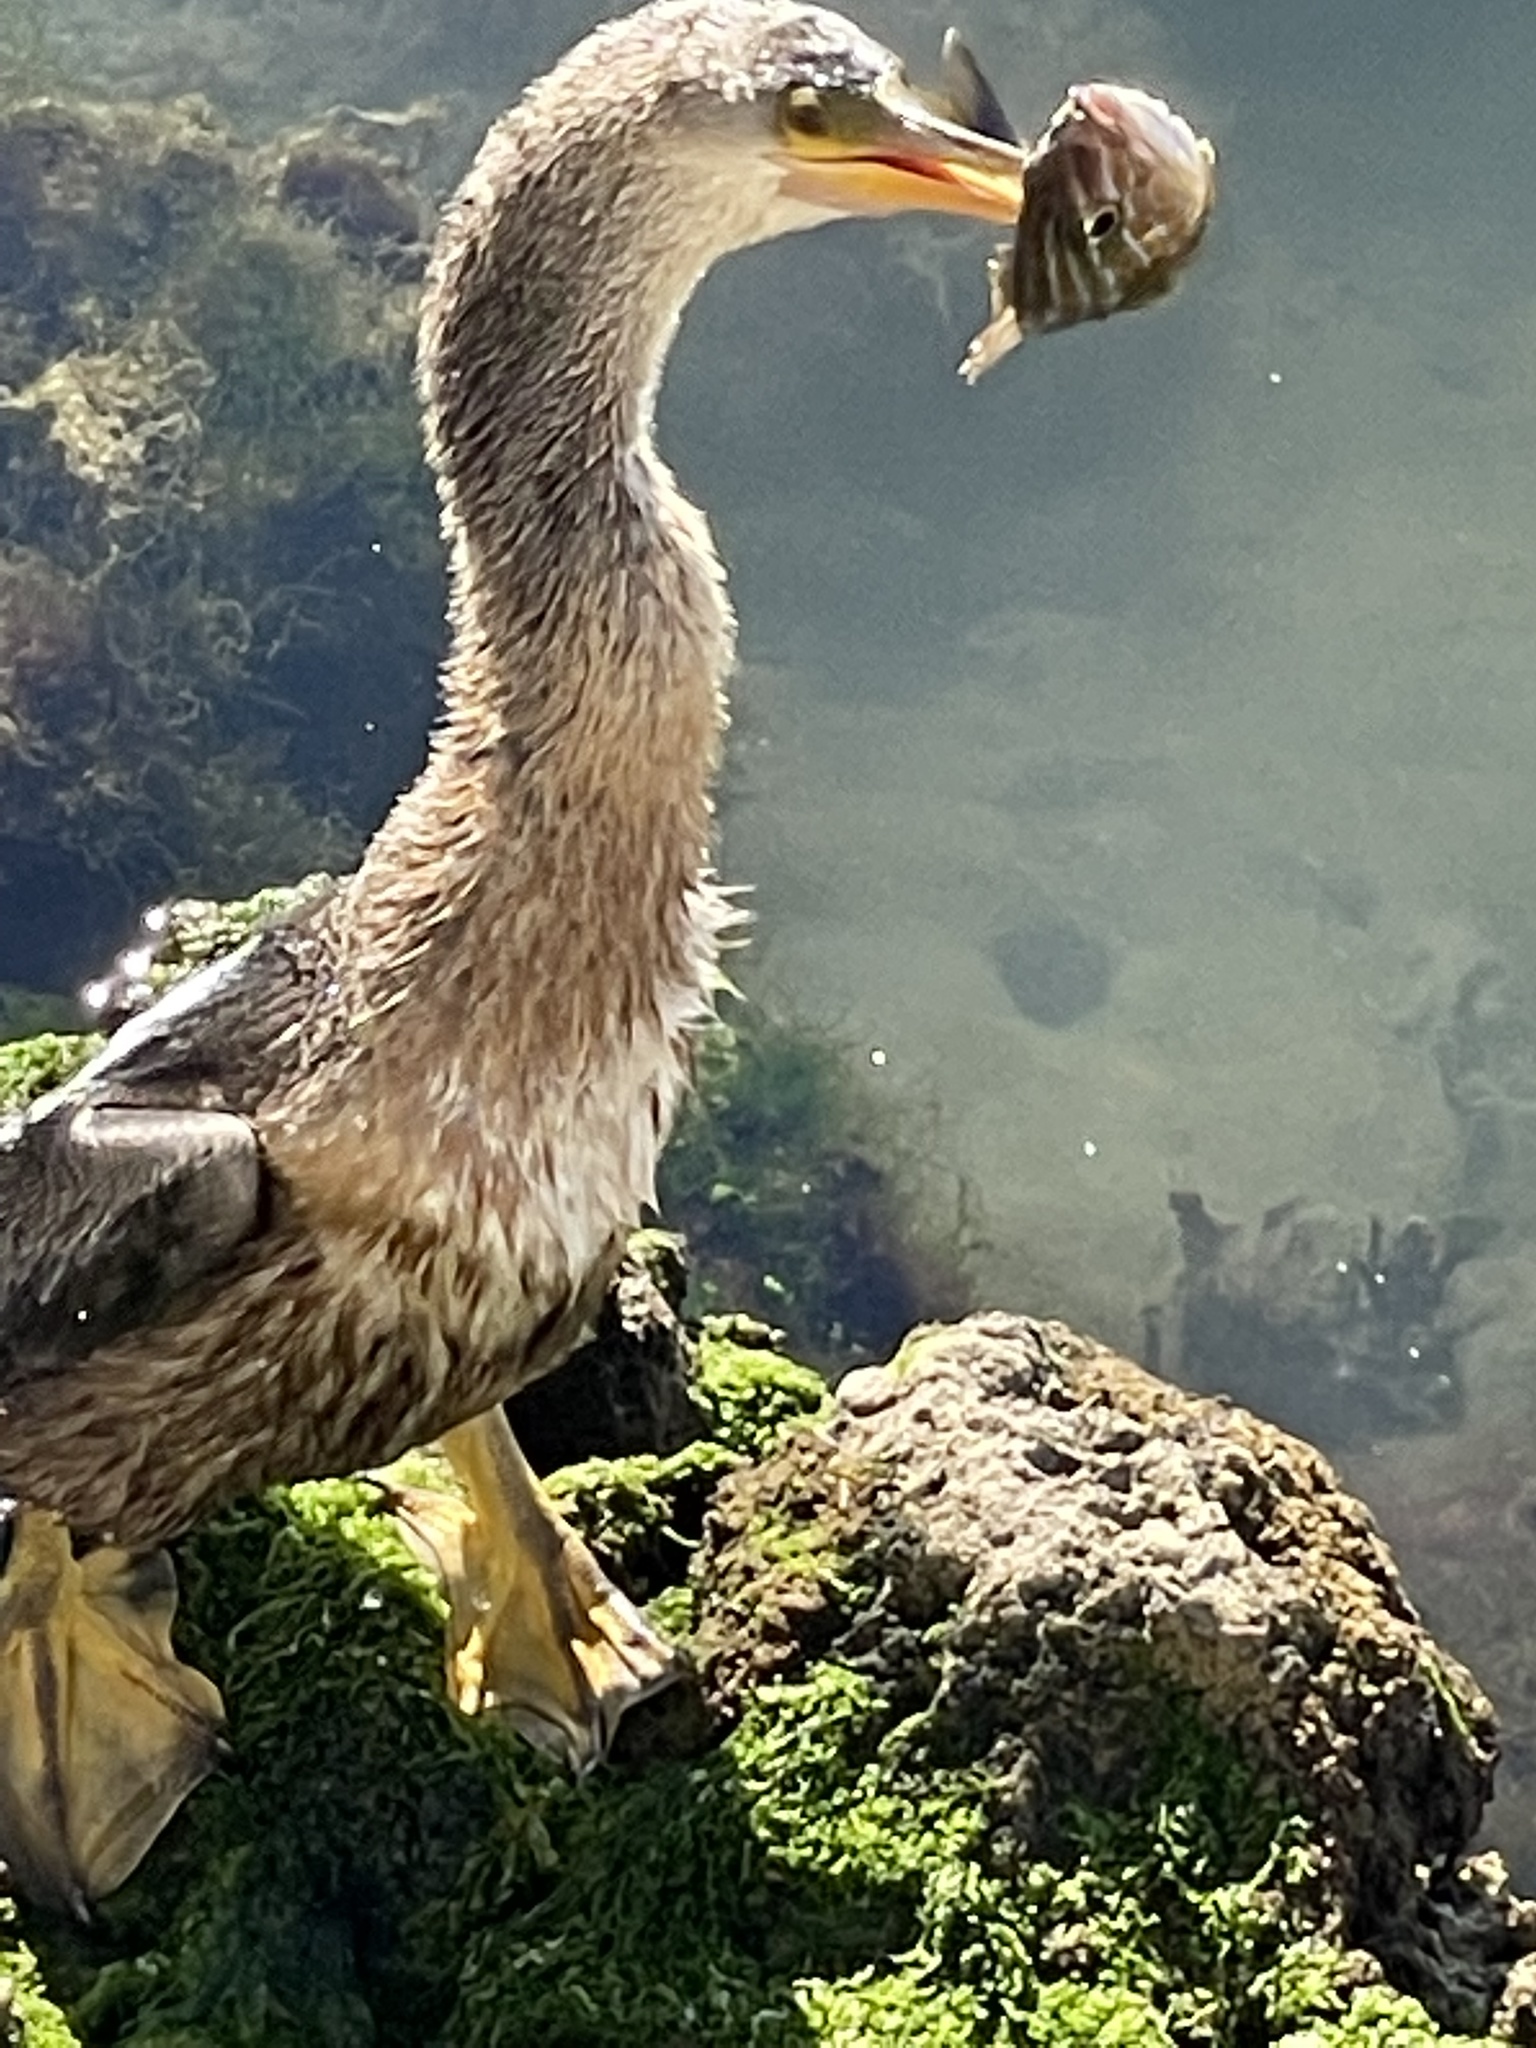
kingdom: Animalia
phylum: Chordata
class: Aves
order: Suliformes
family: Anhingidae
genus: Anhinga
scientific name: Anhinga anhinga
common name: Anhinga
